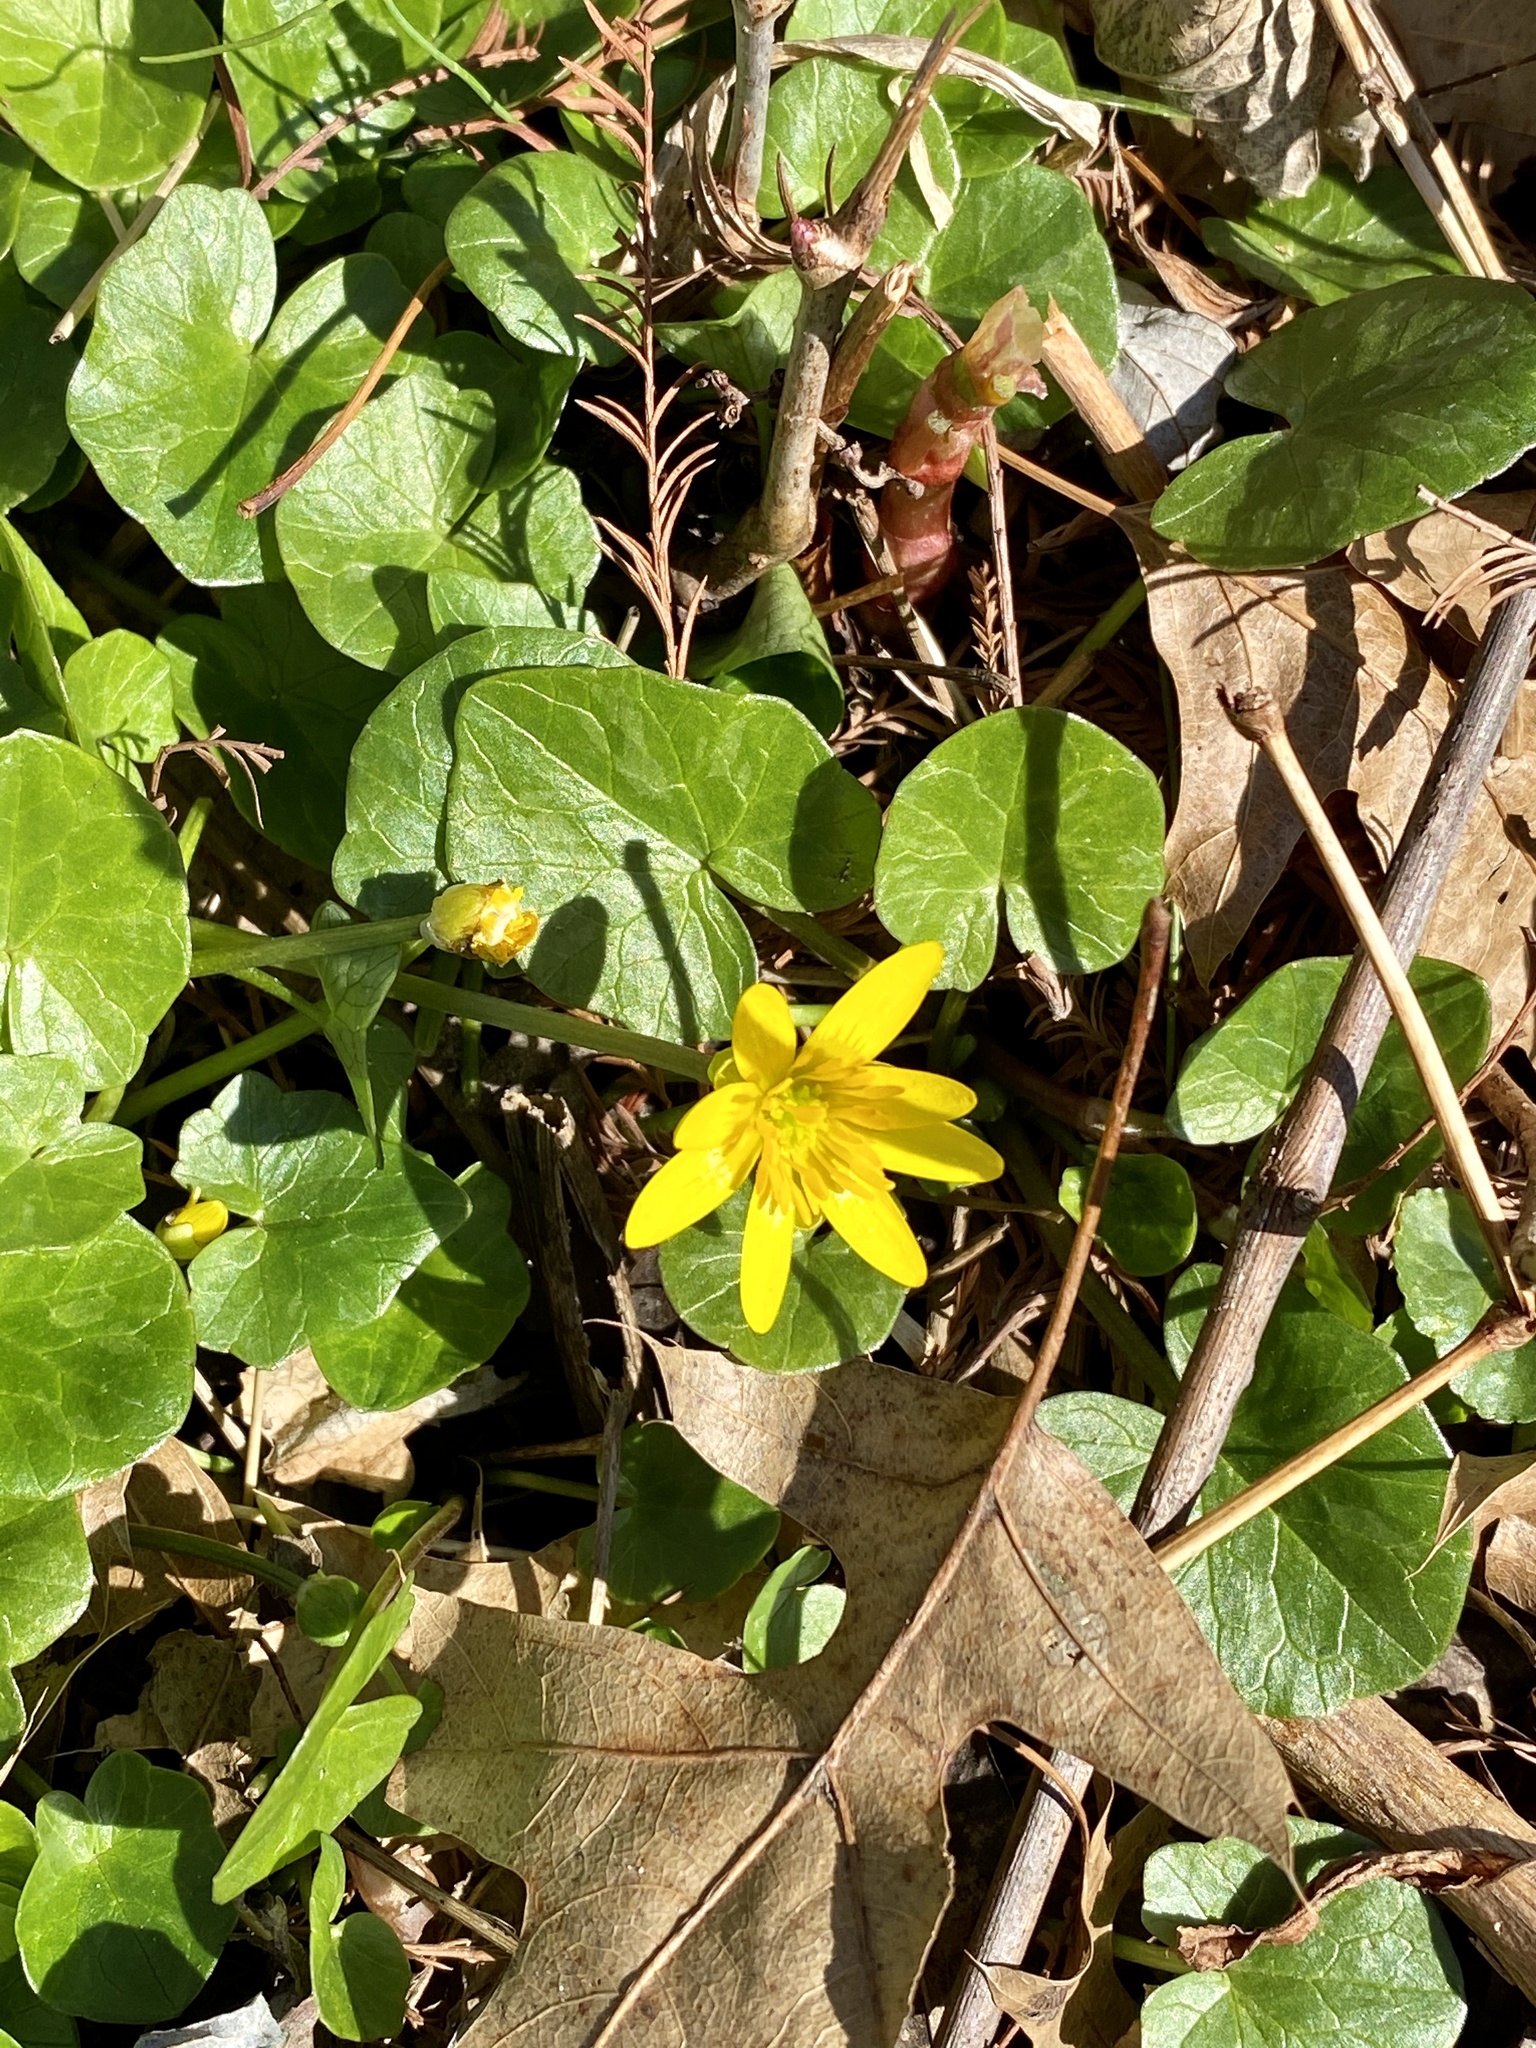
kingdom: Plantae
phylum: Tracheophyta
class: Magnoliopsida
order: Ranunculales
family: Ranunculaceae
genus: Ficaria
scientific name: Ficaria verna
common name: Lesser celandine
